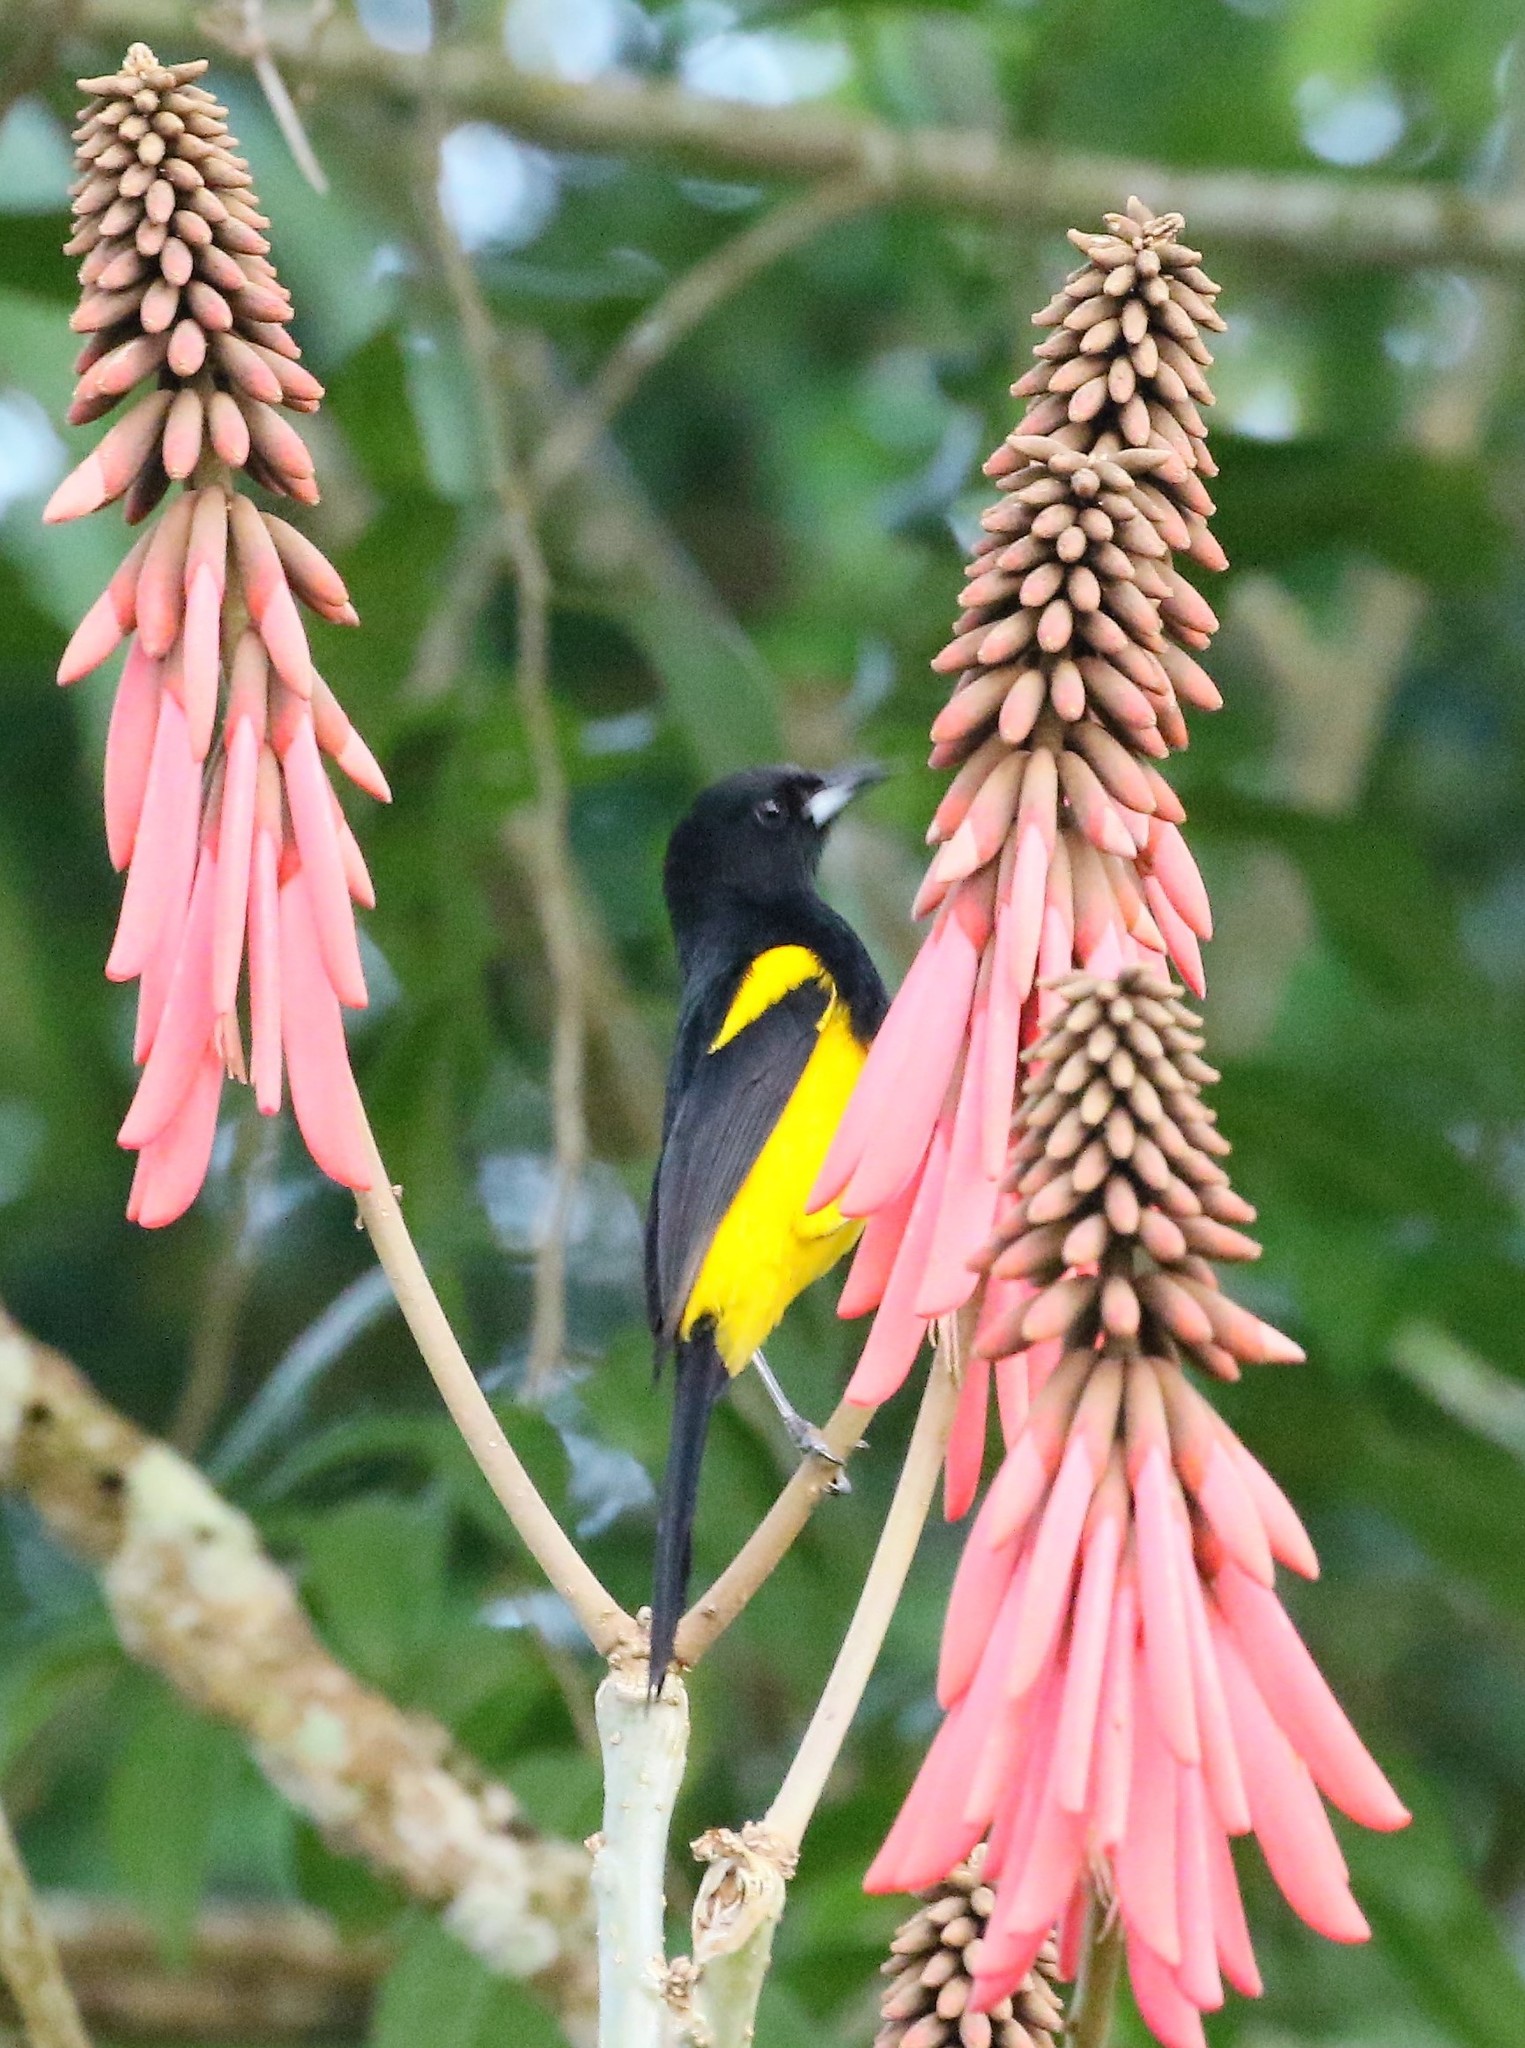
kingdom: Animalia
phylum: Chordata
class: Aves
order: Passeriformes
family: Icteridae
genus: Icterus
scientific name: Icterus prosthemelas
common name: Black-cowled oriole
